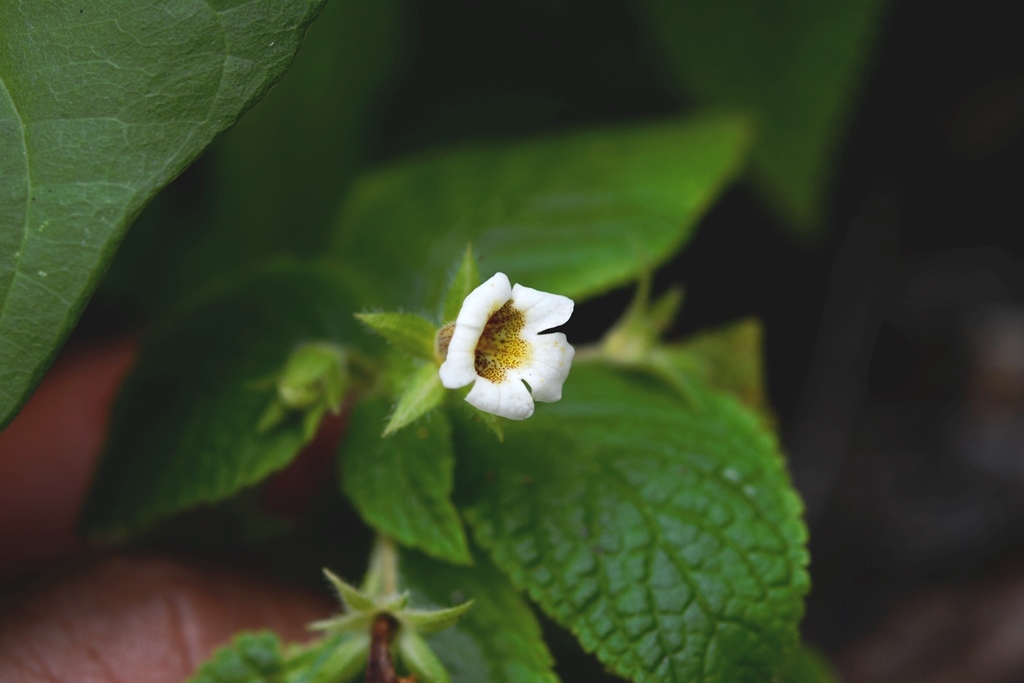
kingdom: Plantae
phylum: Tracheophyta
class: Magnoliopsida
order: Lamiales
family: Gesneriaceae
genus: Achimenes
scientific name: Achimenes misera
